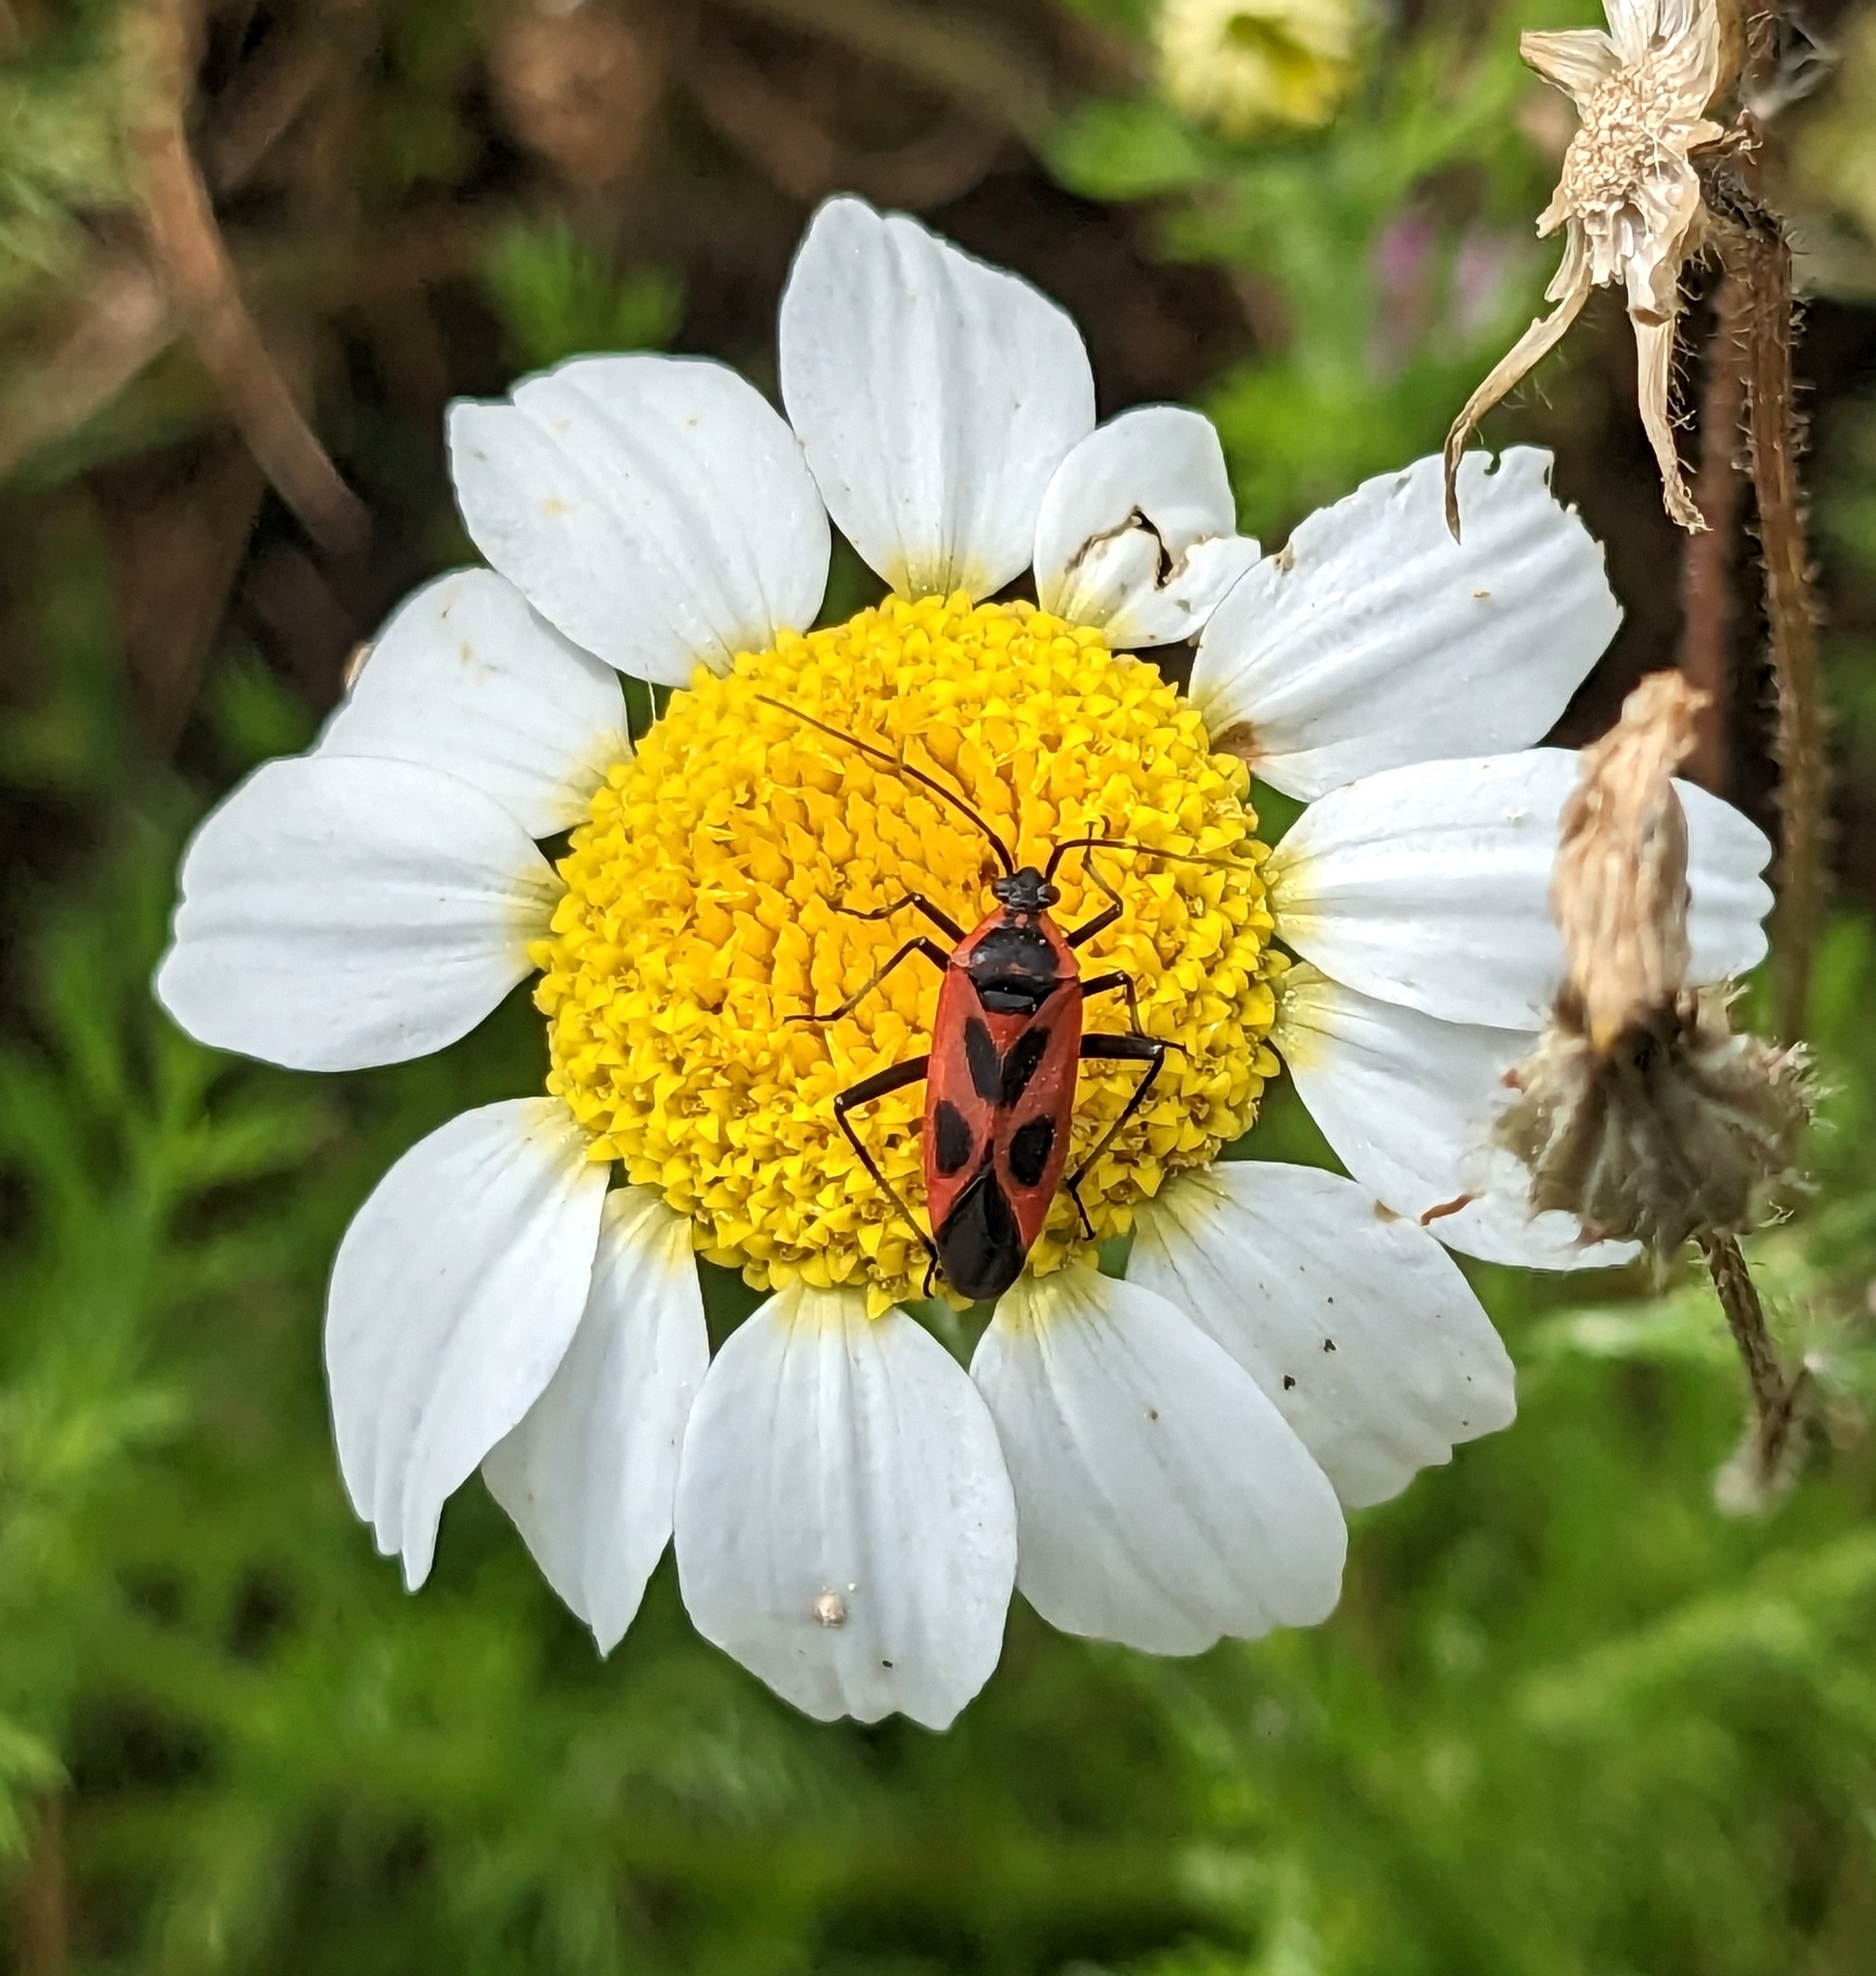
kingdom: Animalia
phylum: Arthropoda
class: Insecta
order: Hemiptera
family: Miridae
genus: Calocoris
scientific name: Calocoris nemoralis
